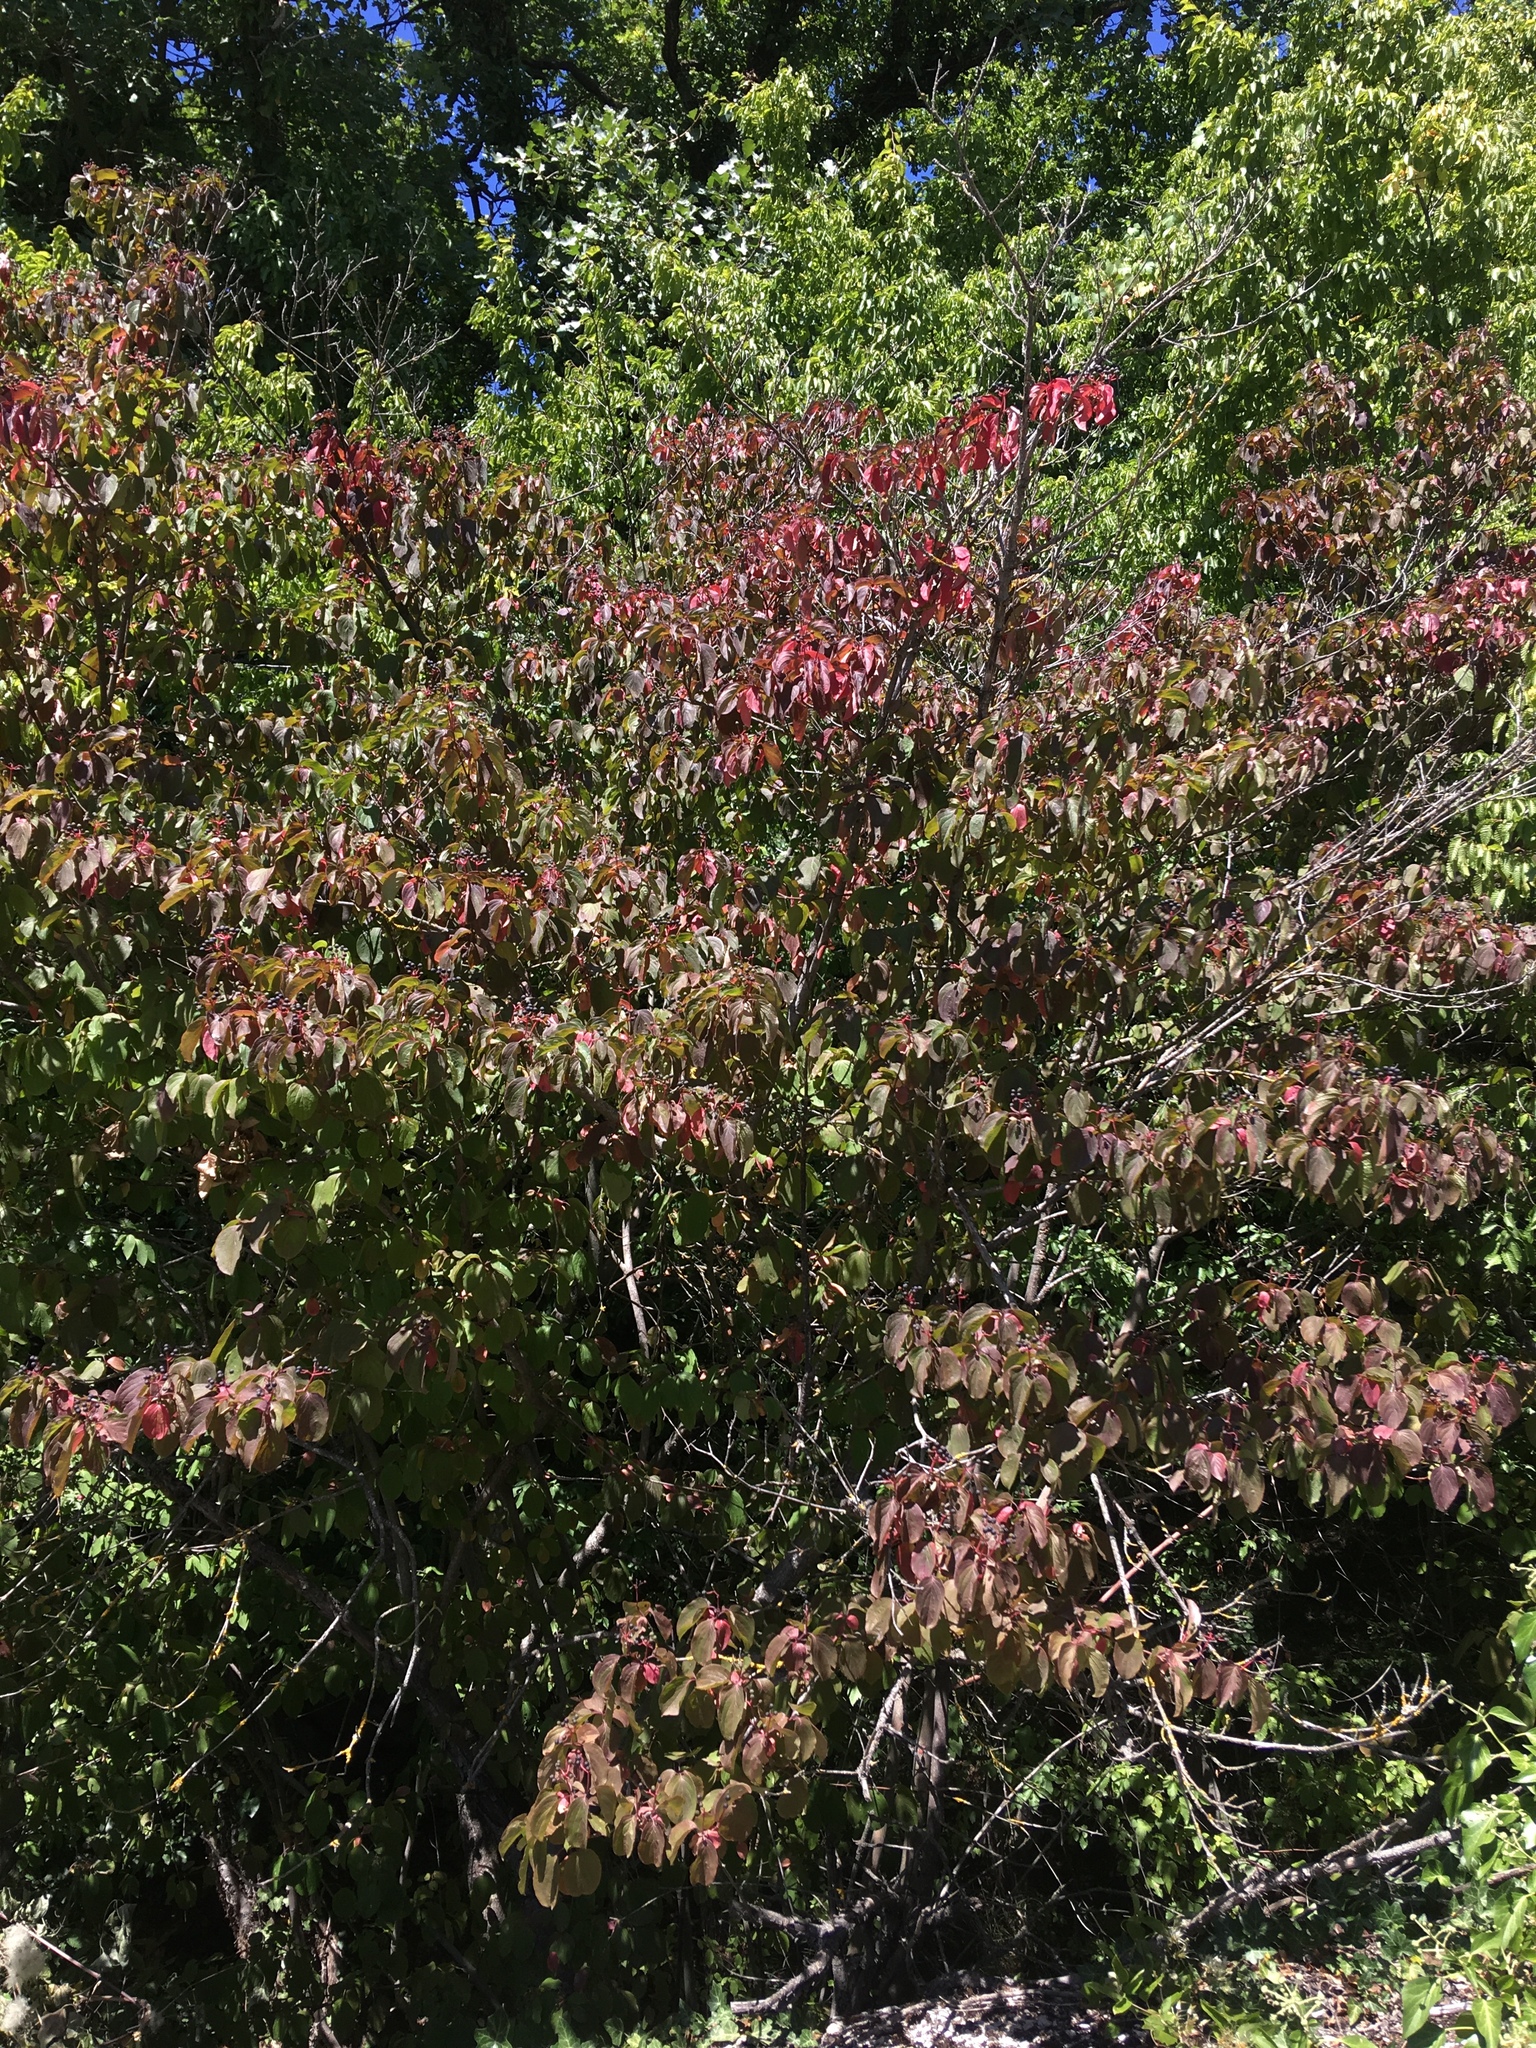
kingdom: Plantae
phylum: Tracheophyta
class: Magnoliopsida
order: Cornales
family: Cornaceae
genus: Cornus
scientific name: Cornus sanguinea
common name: Dogwood
